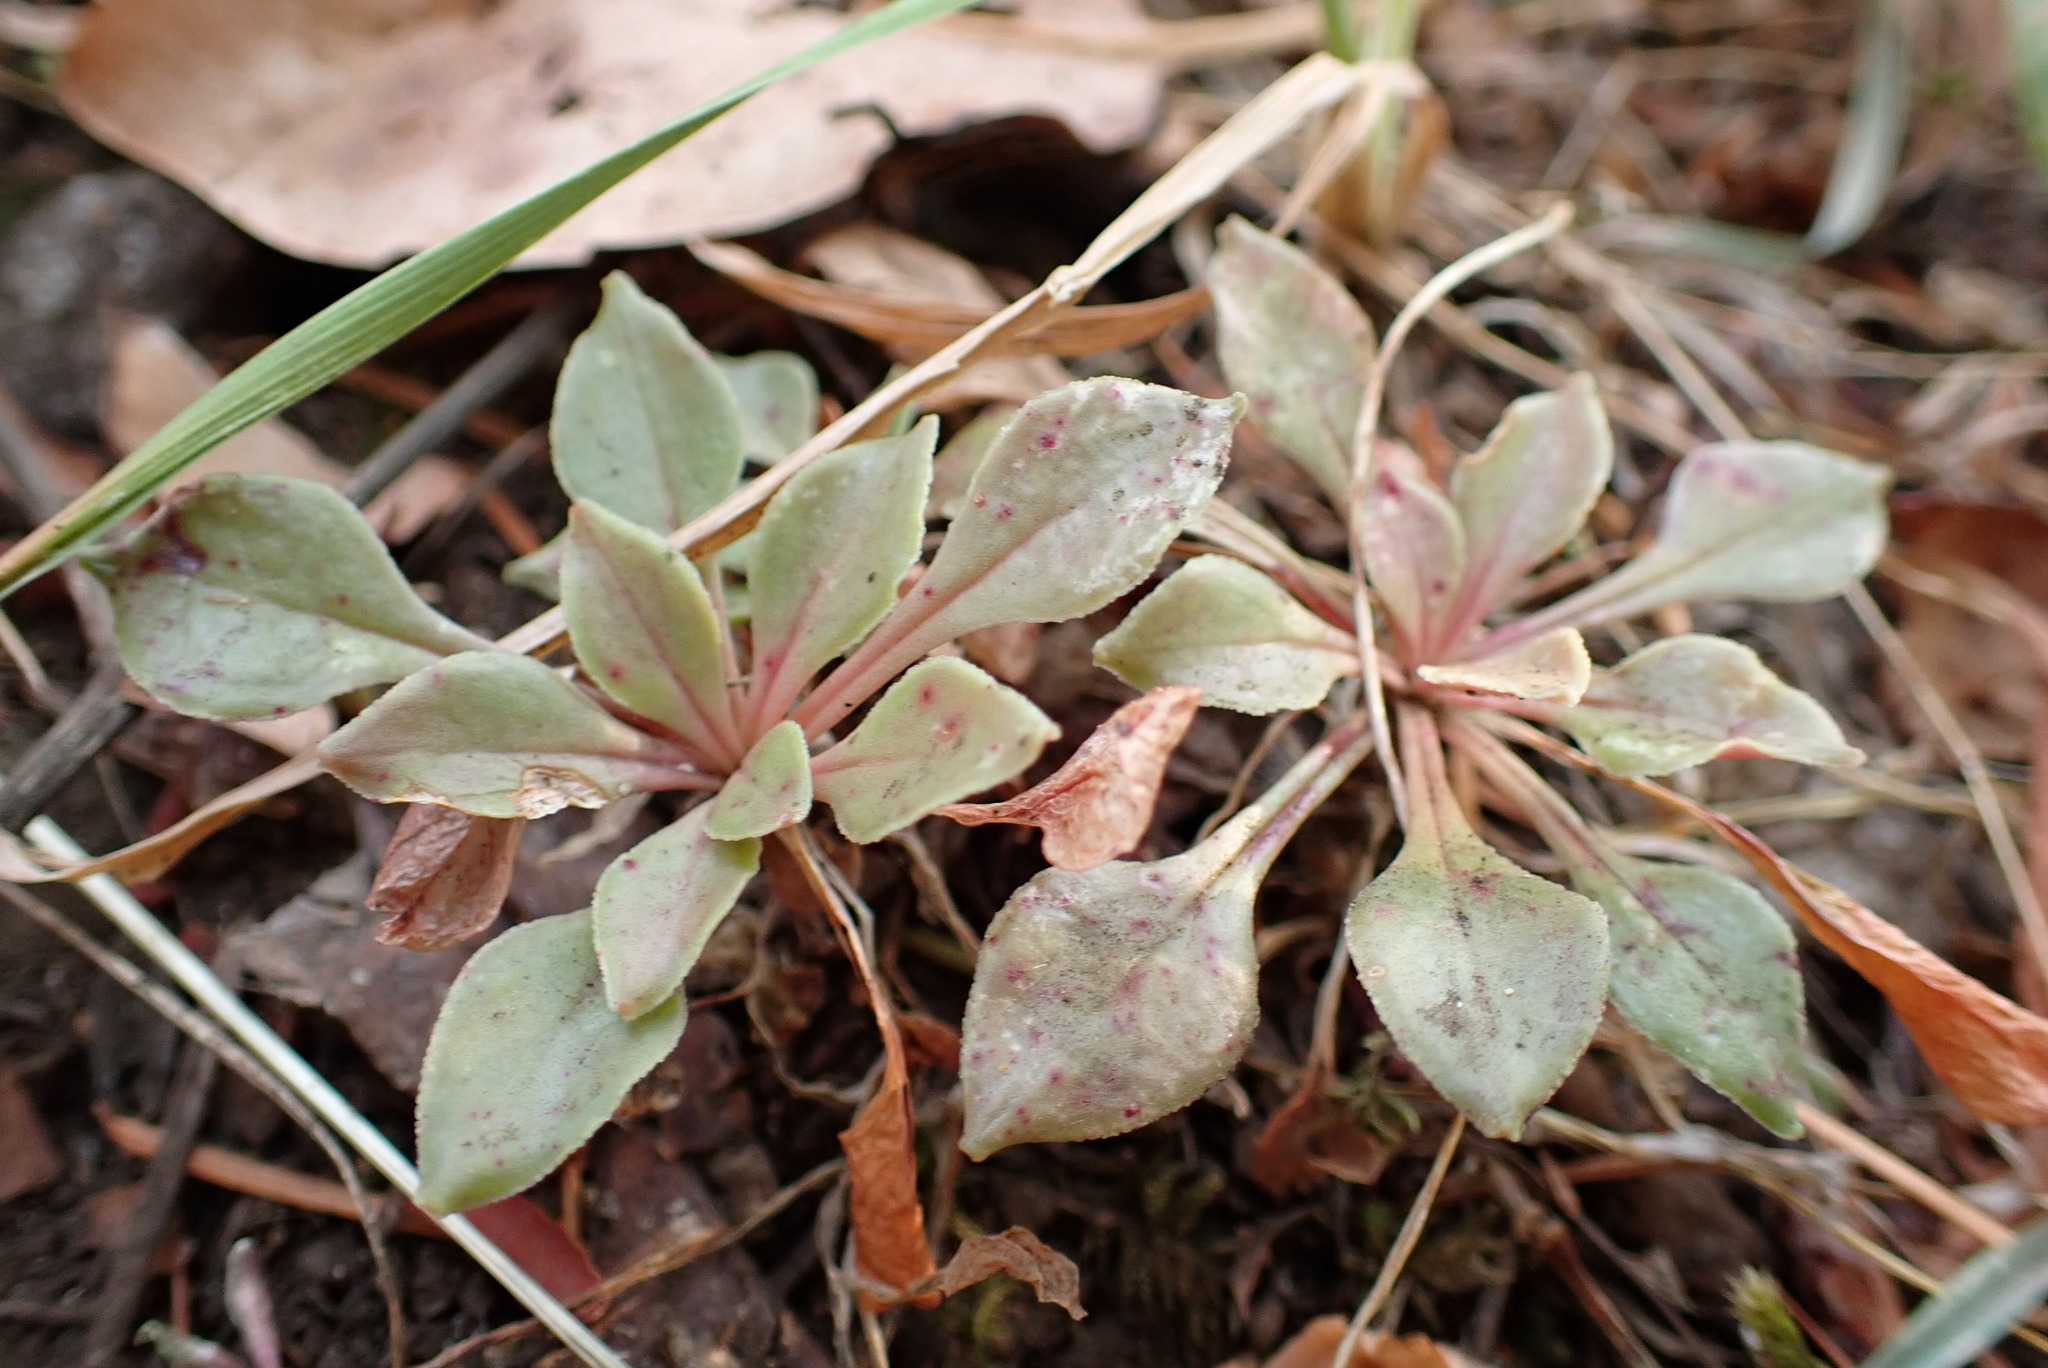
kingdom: Plantae
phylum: Tracheophyta
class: Magnoliopsida
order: Caryophyllales
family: Montiaceae
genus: Montia
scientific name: Montia parvifolia
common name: Small-leaved blinks
